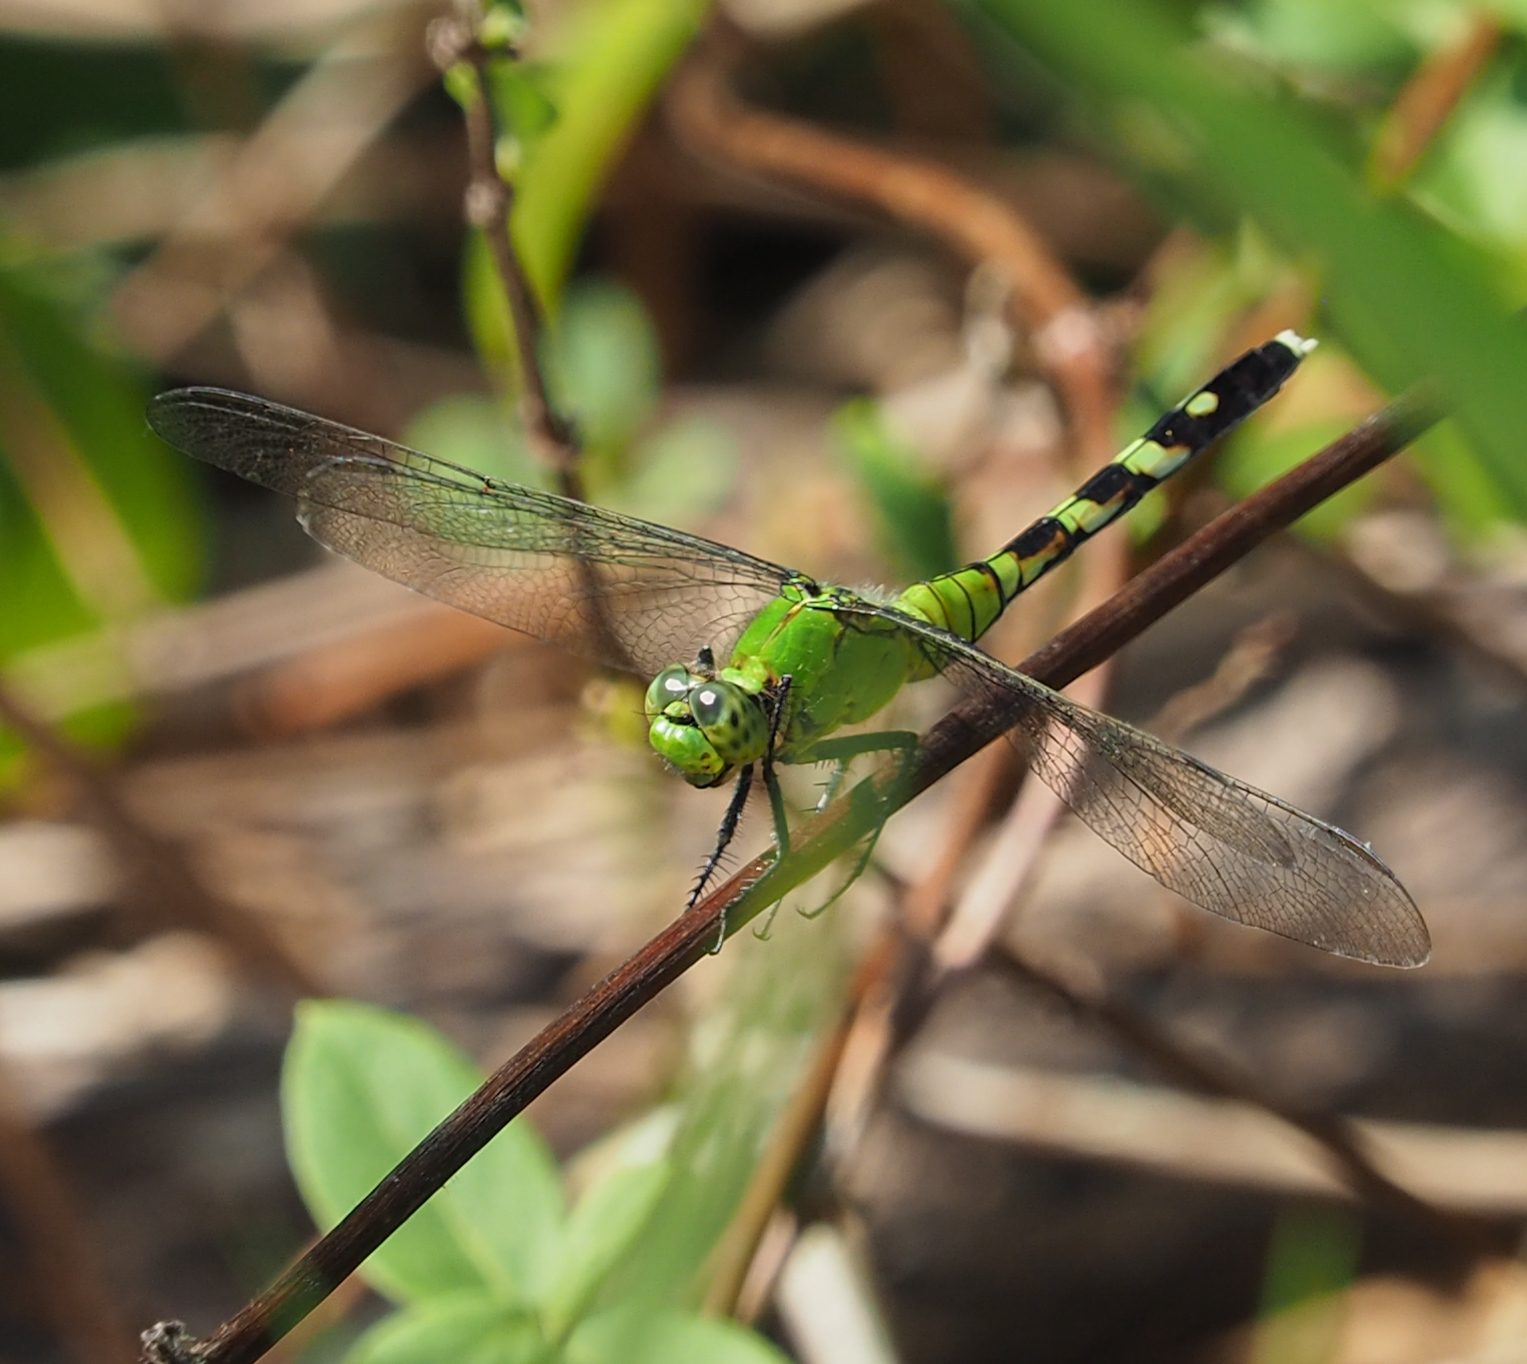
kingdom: Animalia
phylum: Arthropoda
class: Insecta
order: Odonata
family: Libellulidae
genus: Erythemis
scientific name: Erythemis simplicicollis
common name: Eastern pondhawk
